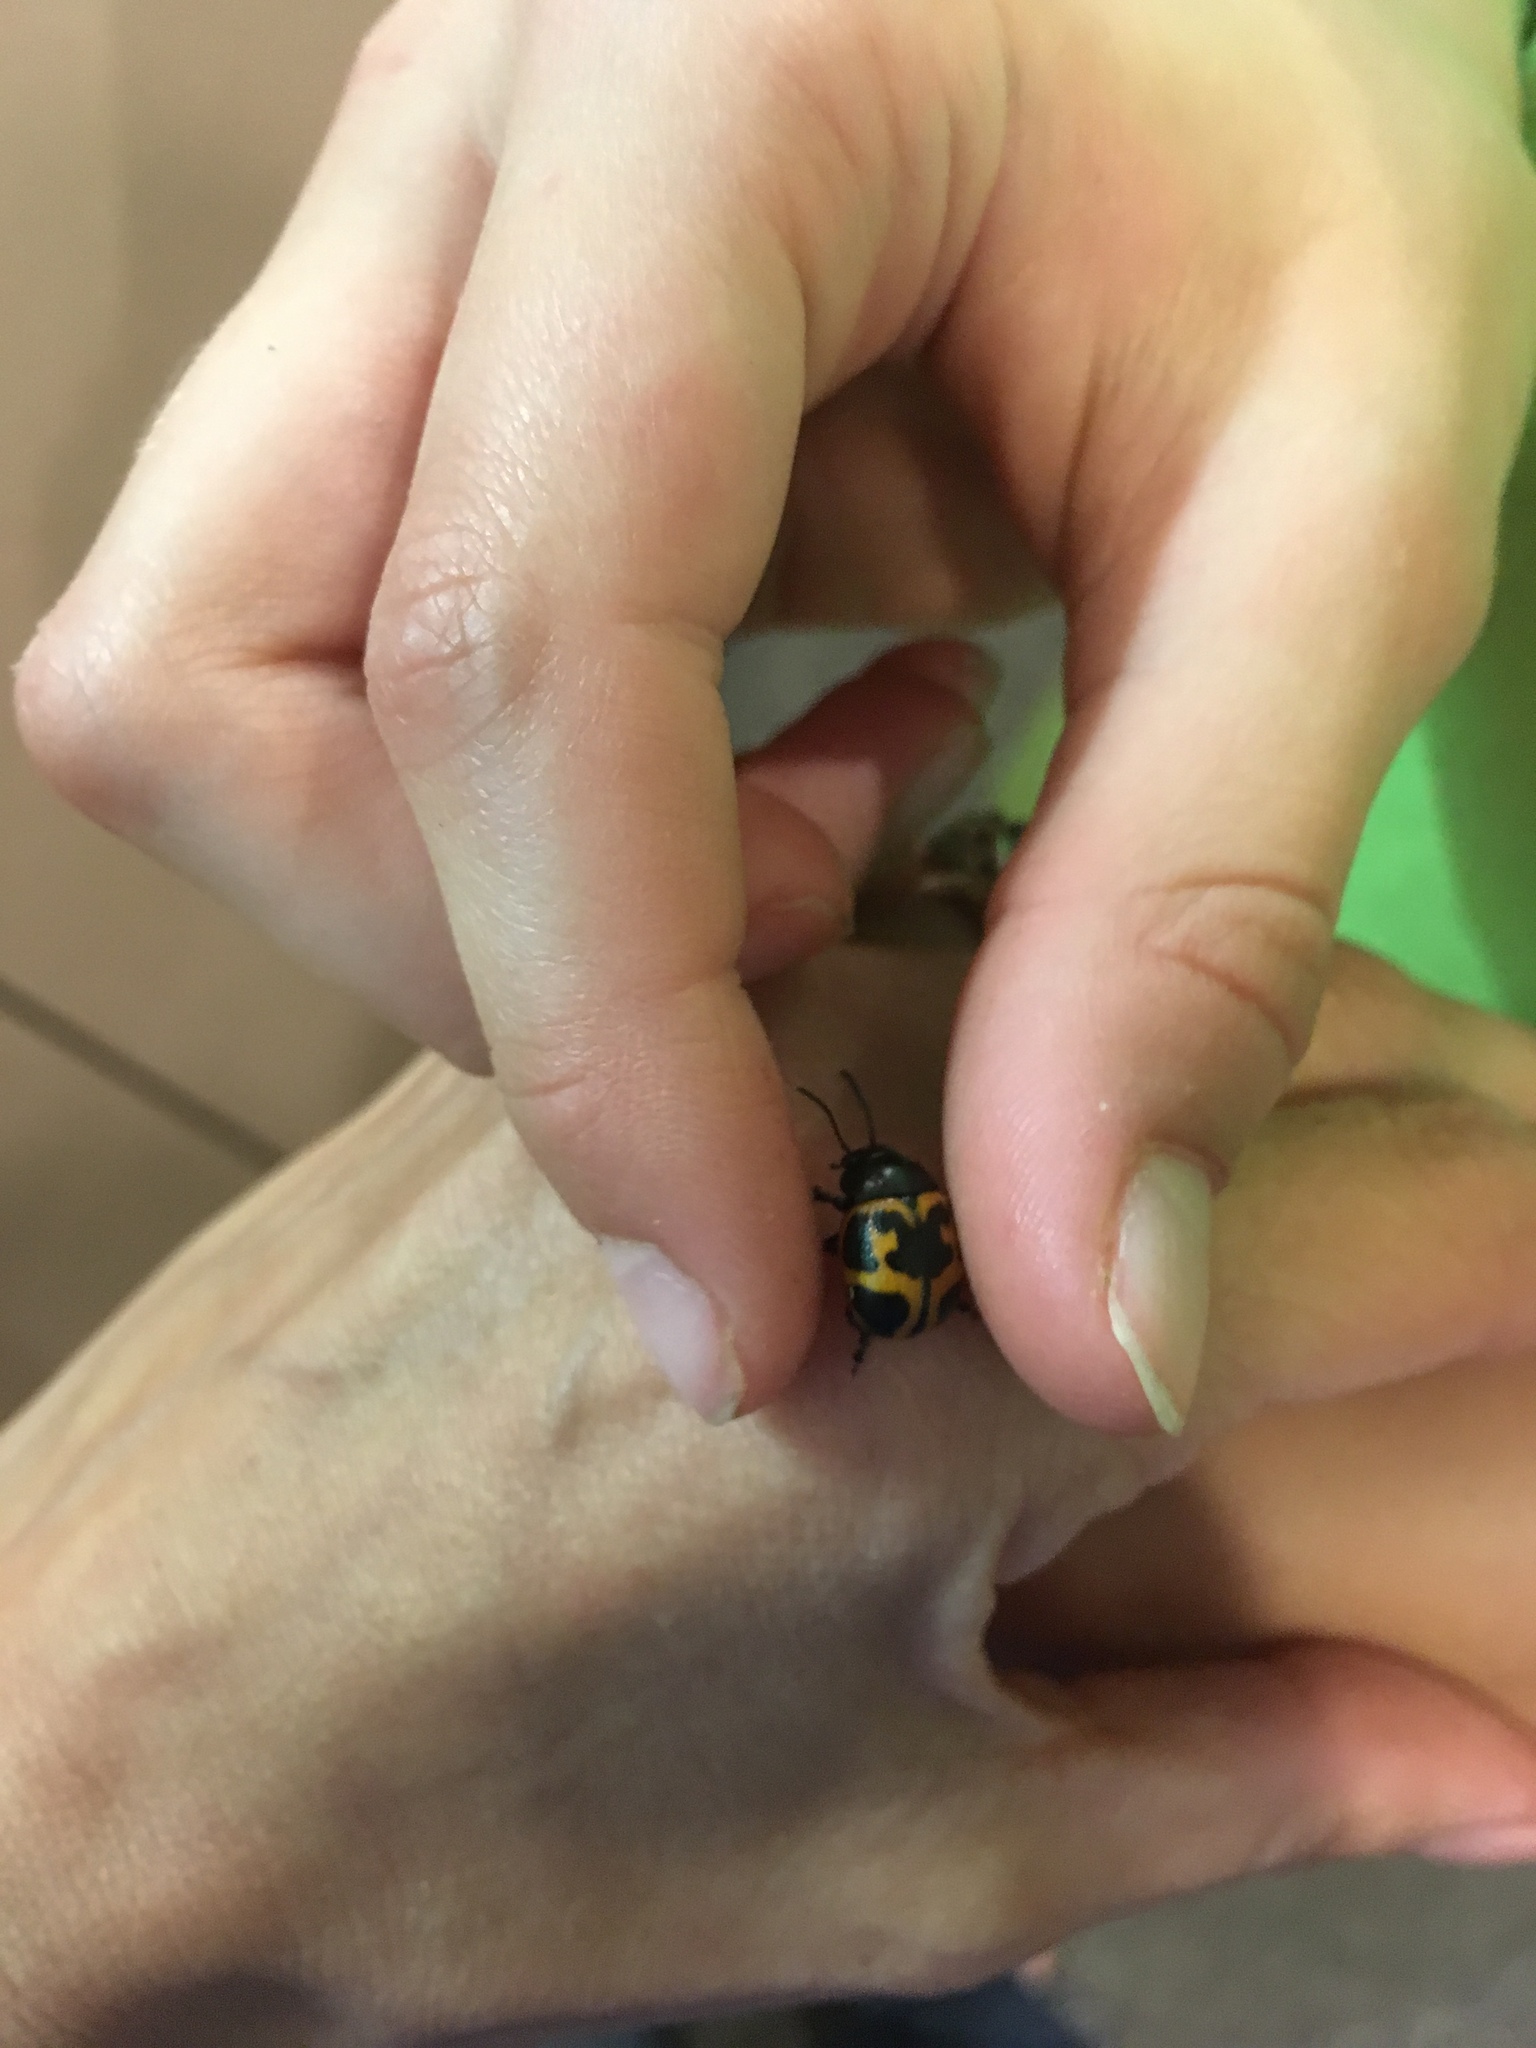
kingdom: Animalia
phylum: Arthropoda
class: Insecta
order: Coleoptera
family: Chrysomelidae
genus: Labidomera
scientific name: Labidomera clivicollis
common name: Swamp milkweed leaf beetle
